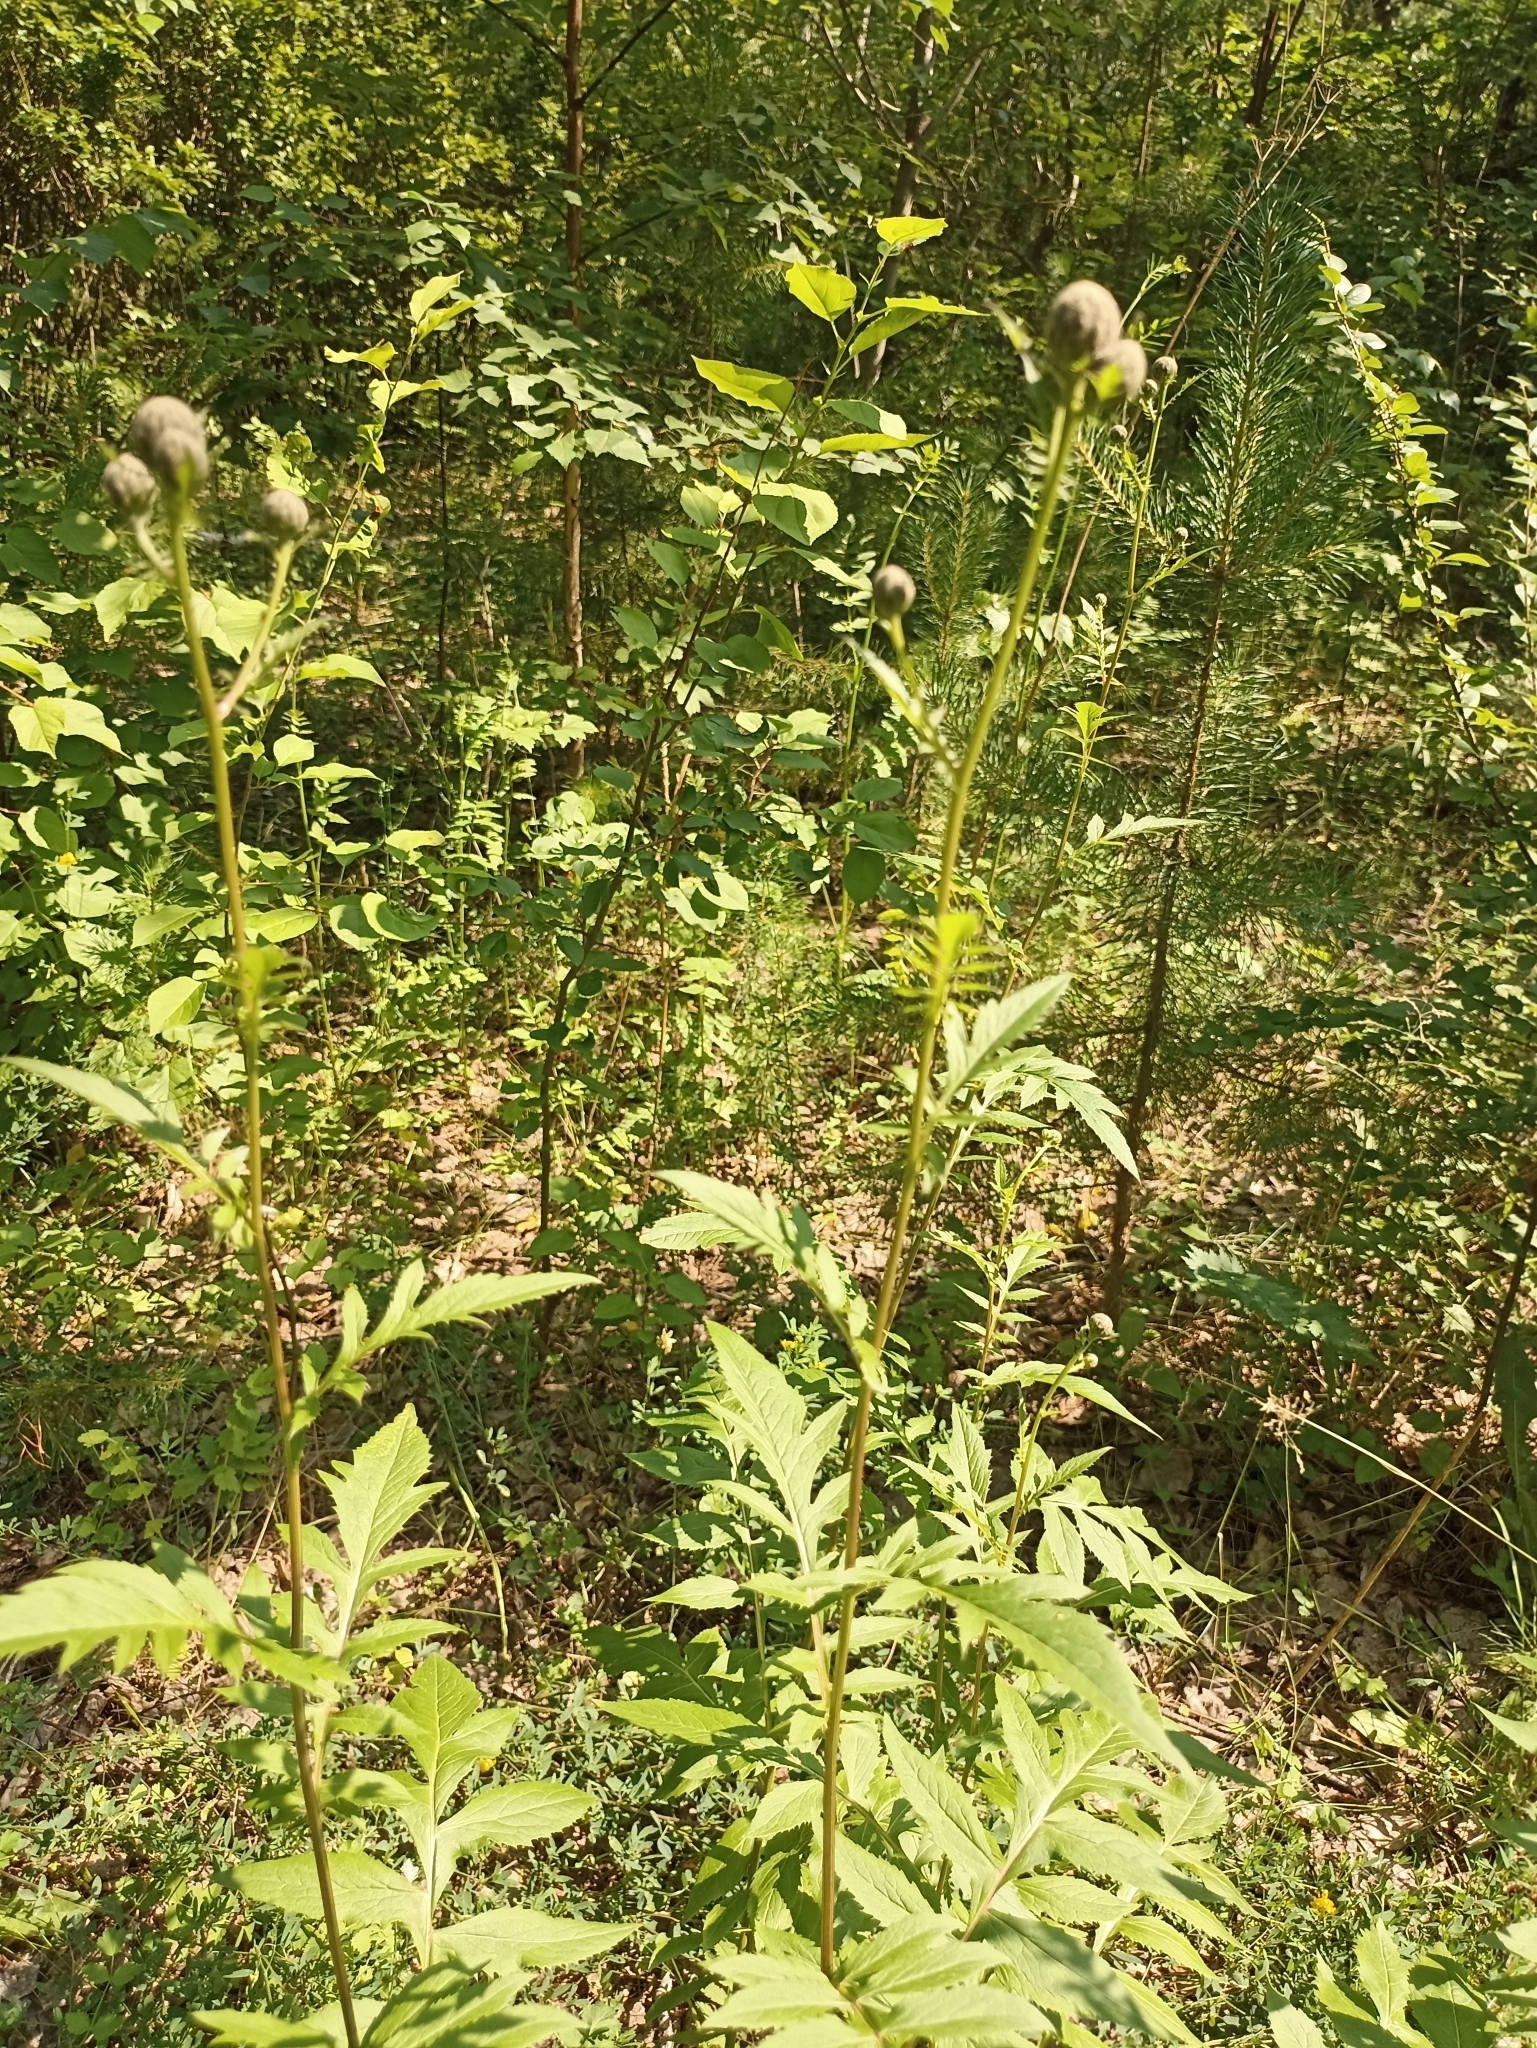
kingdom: Plantae
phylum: Tracheophyta
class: Magnoliopsida
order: Asterales
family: Asteraceae
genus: Serratula
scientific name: Serratula coronata
